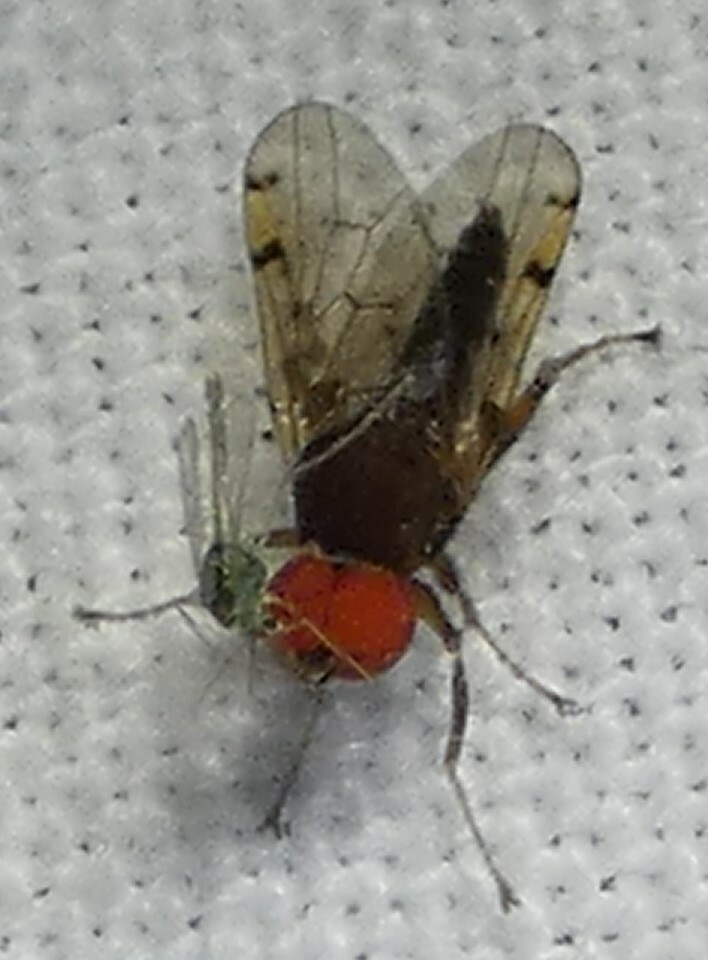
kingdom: Animalia
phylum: Arthropoda
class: Insecta
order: Diptera
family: Hybotidae
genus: Syneches
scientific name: Syneches simplex
